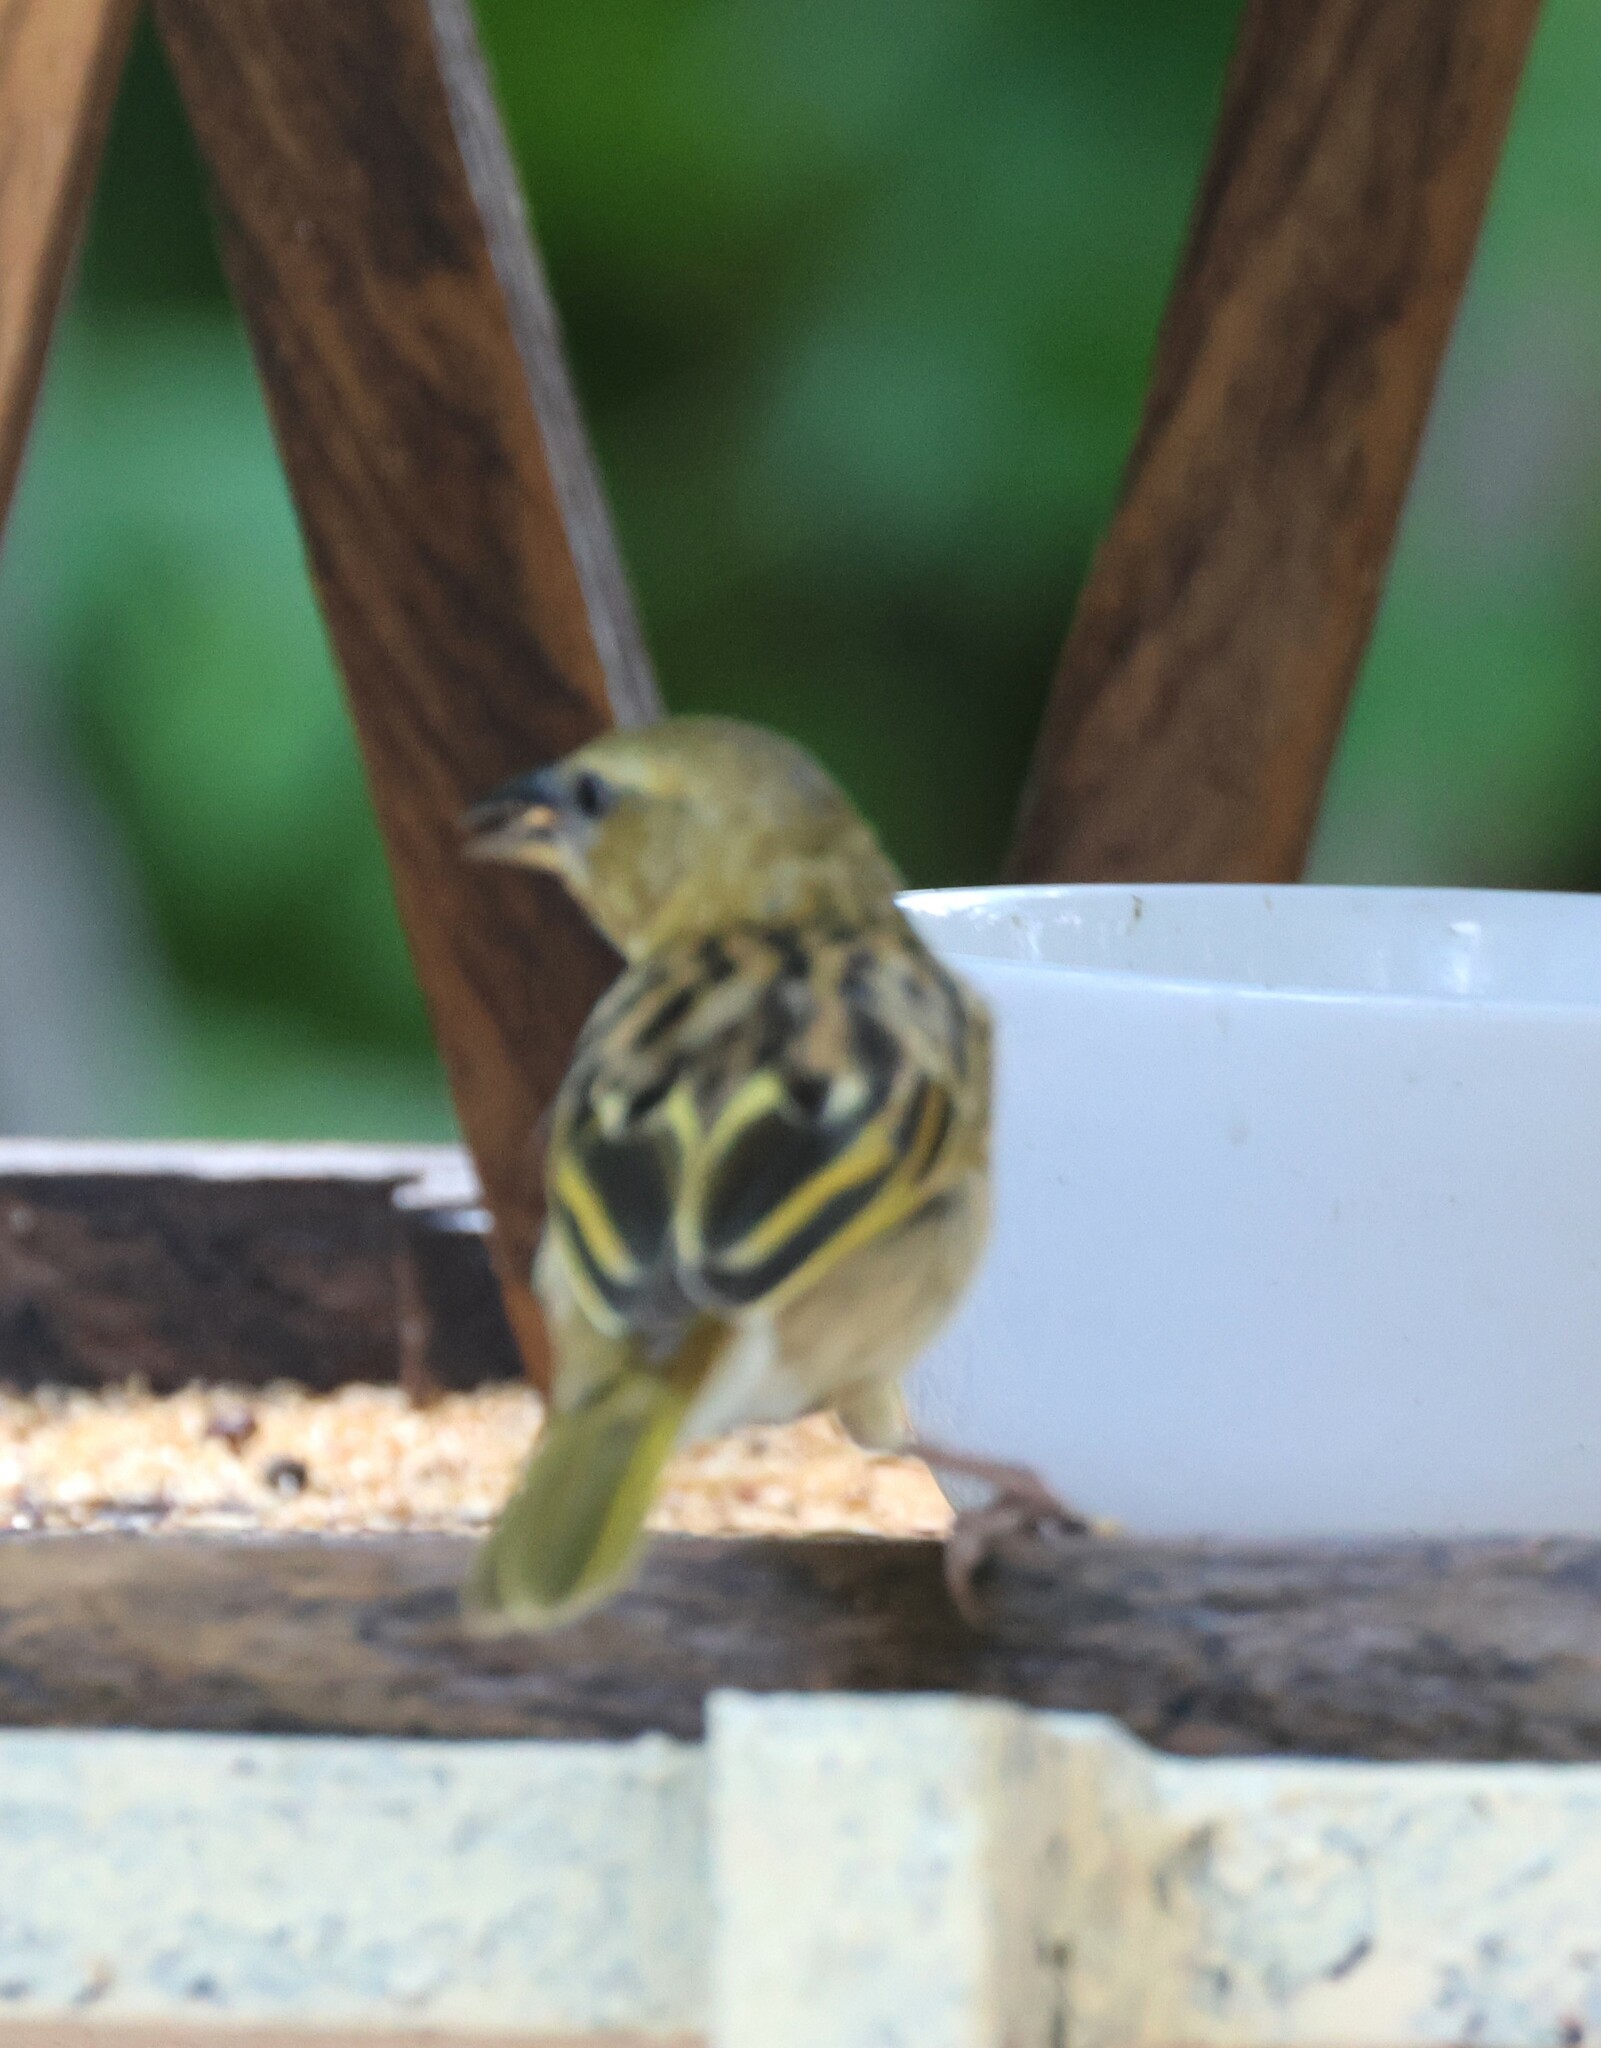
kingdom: Animalia
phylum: Chordata
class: Aves
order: Passeriformes
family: Ploceidae
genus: Ploceus
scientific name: Ploceus xanthopterus
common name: Southern brown-throated weaver
